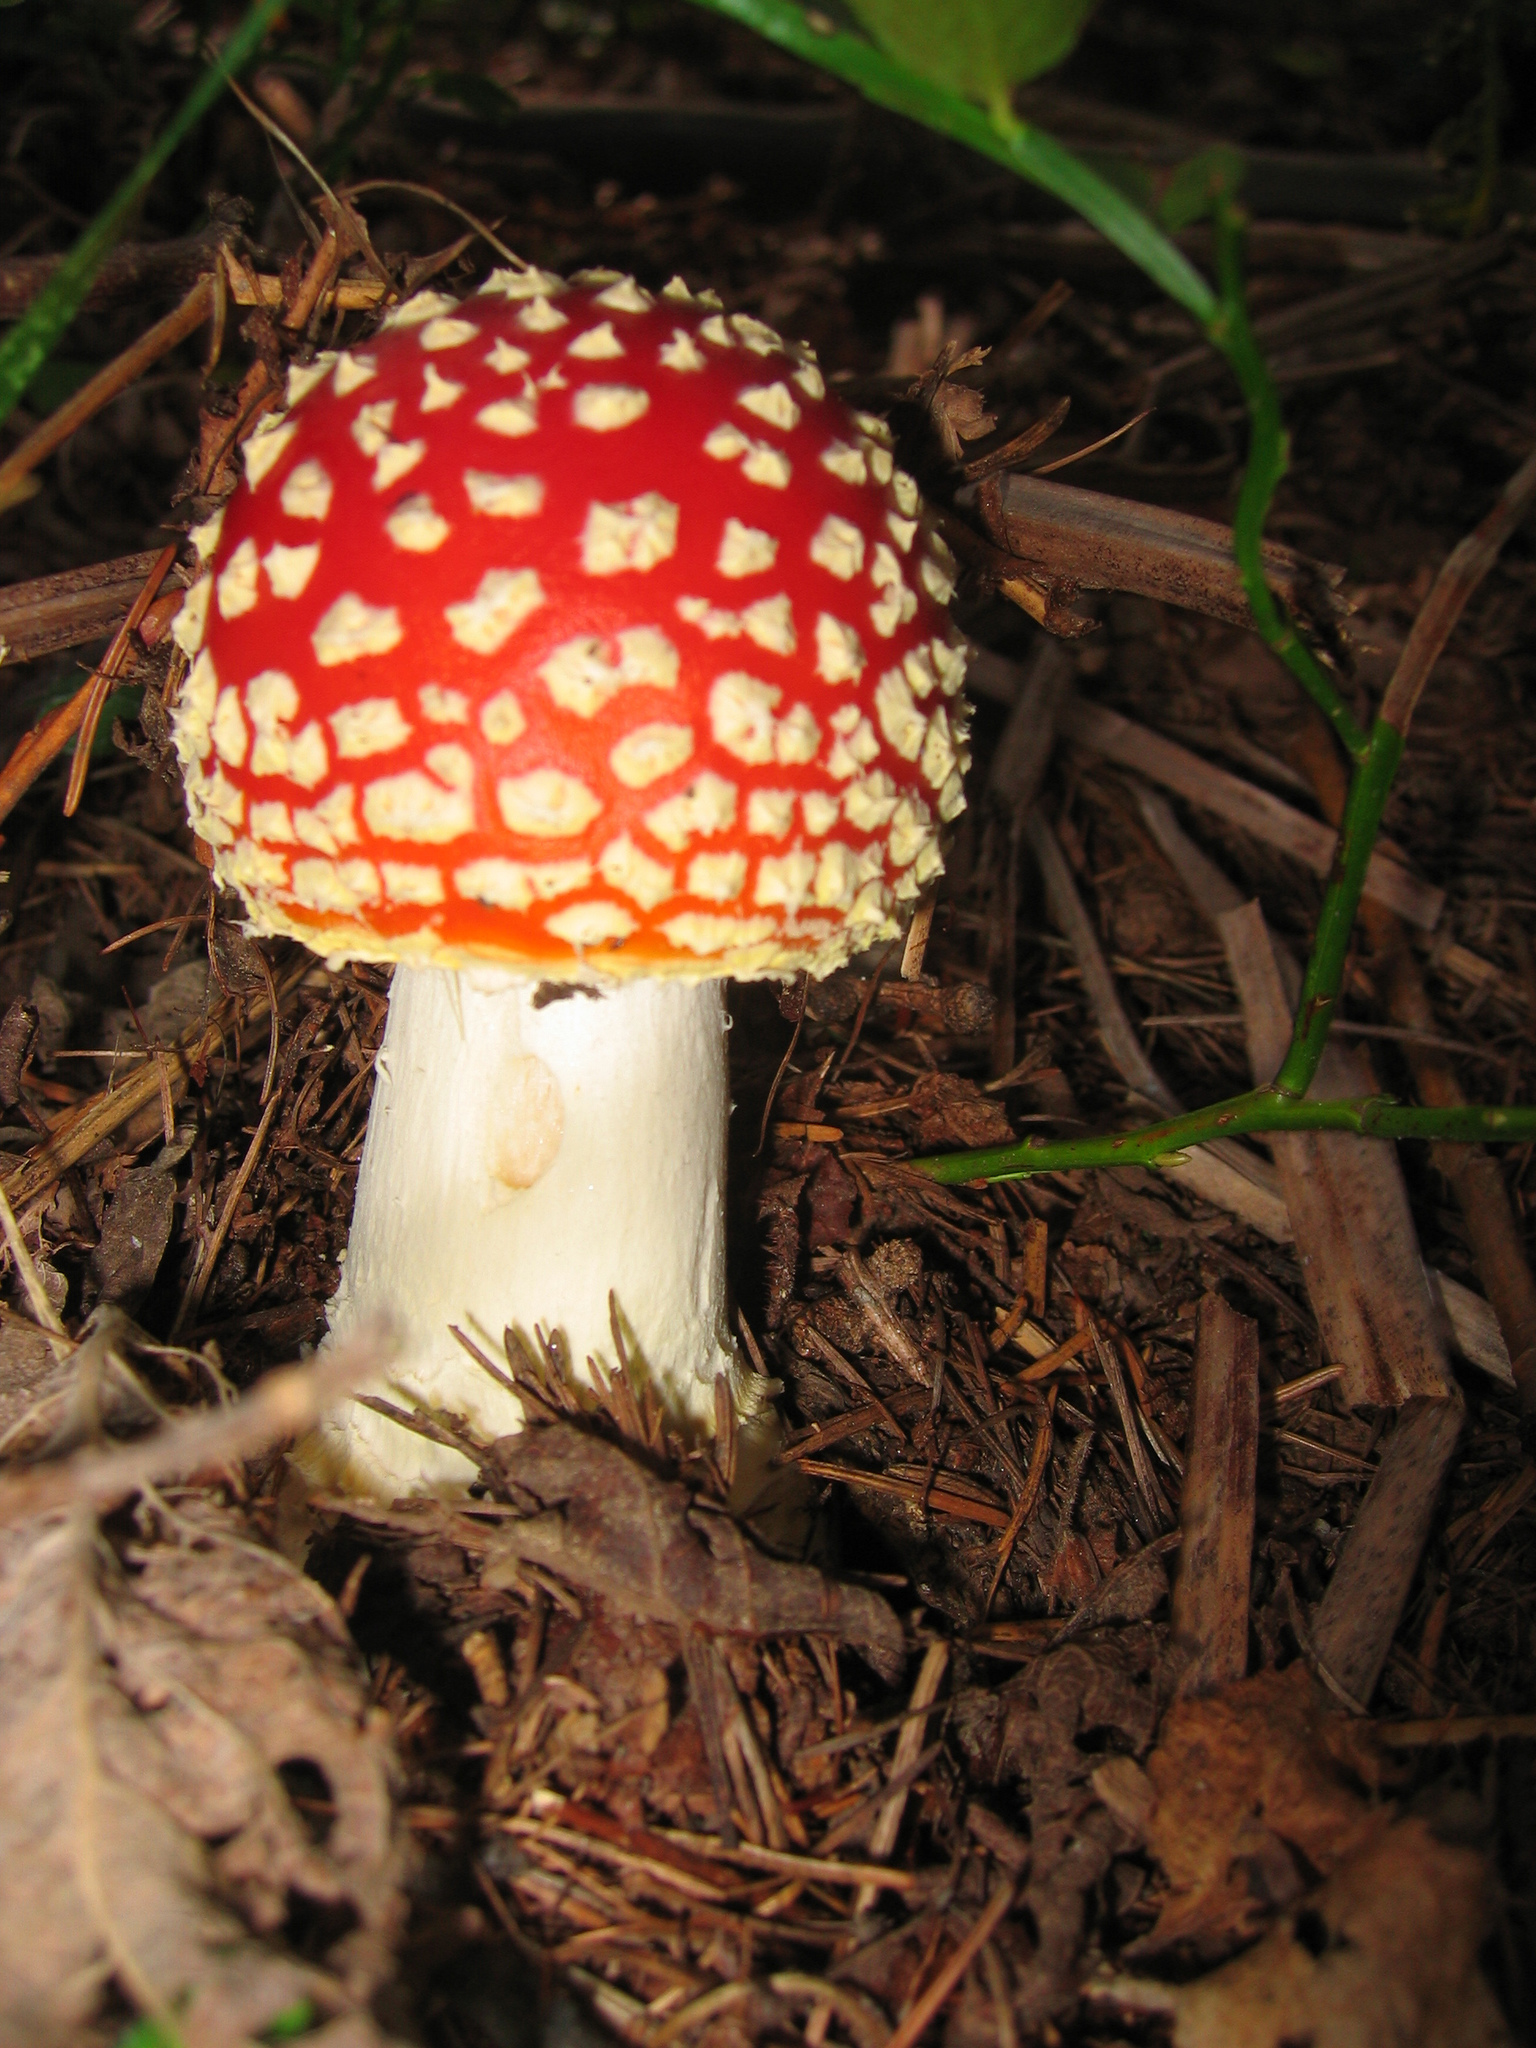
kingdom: Fungi
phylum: Basidiomycota
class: Agaricomycetes
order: Agaricales
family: Amanitaceae
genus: Amanita
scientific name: Amanita muscaria
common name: Fly agaric
